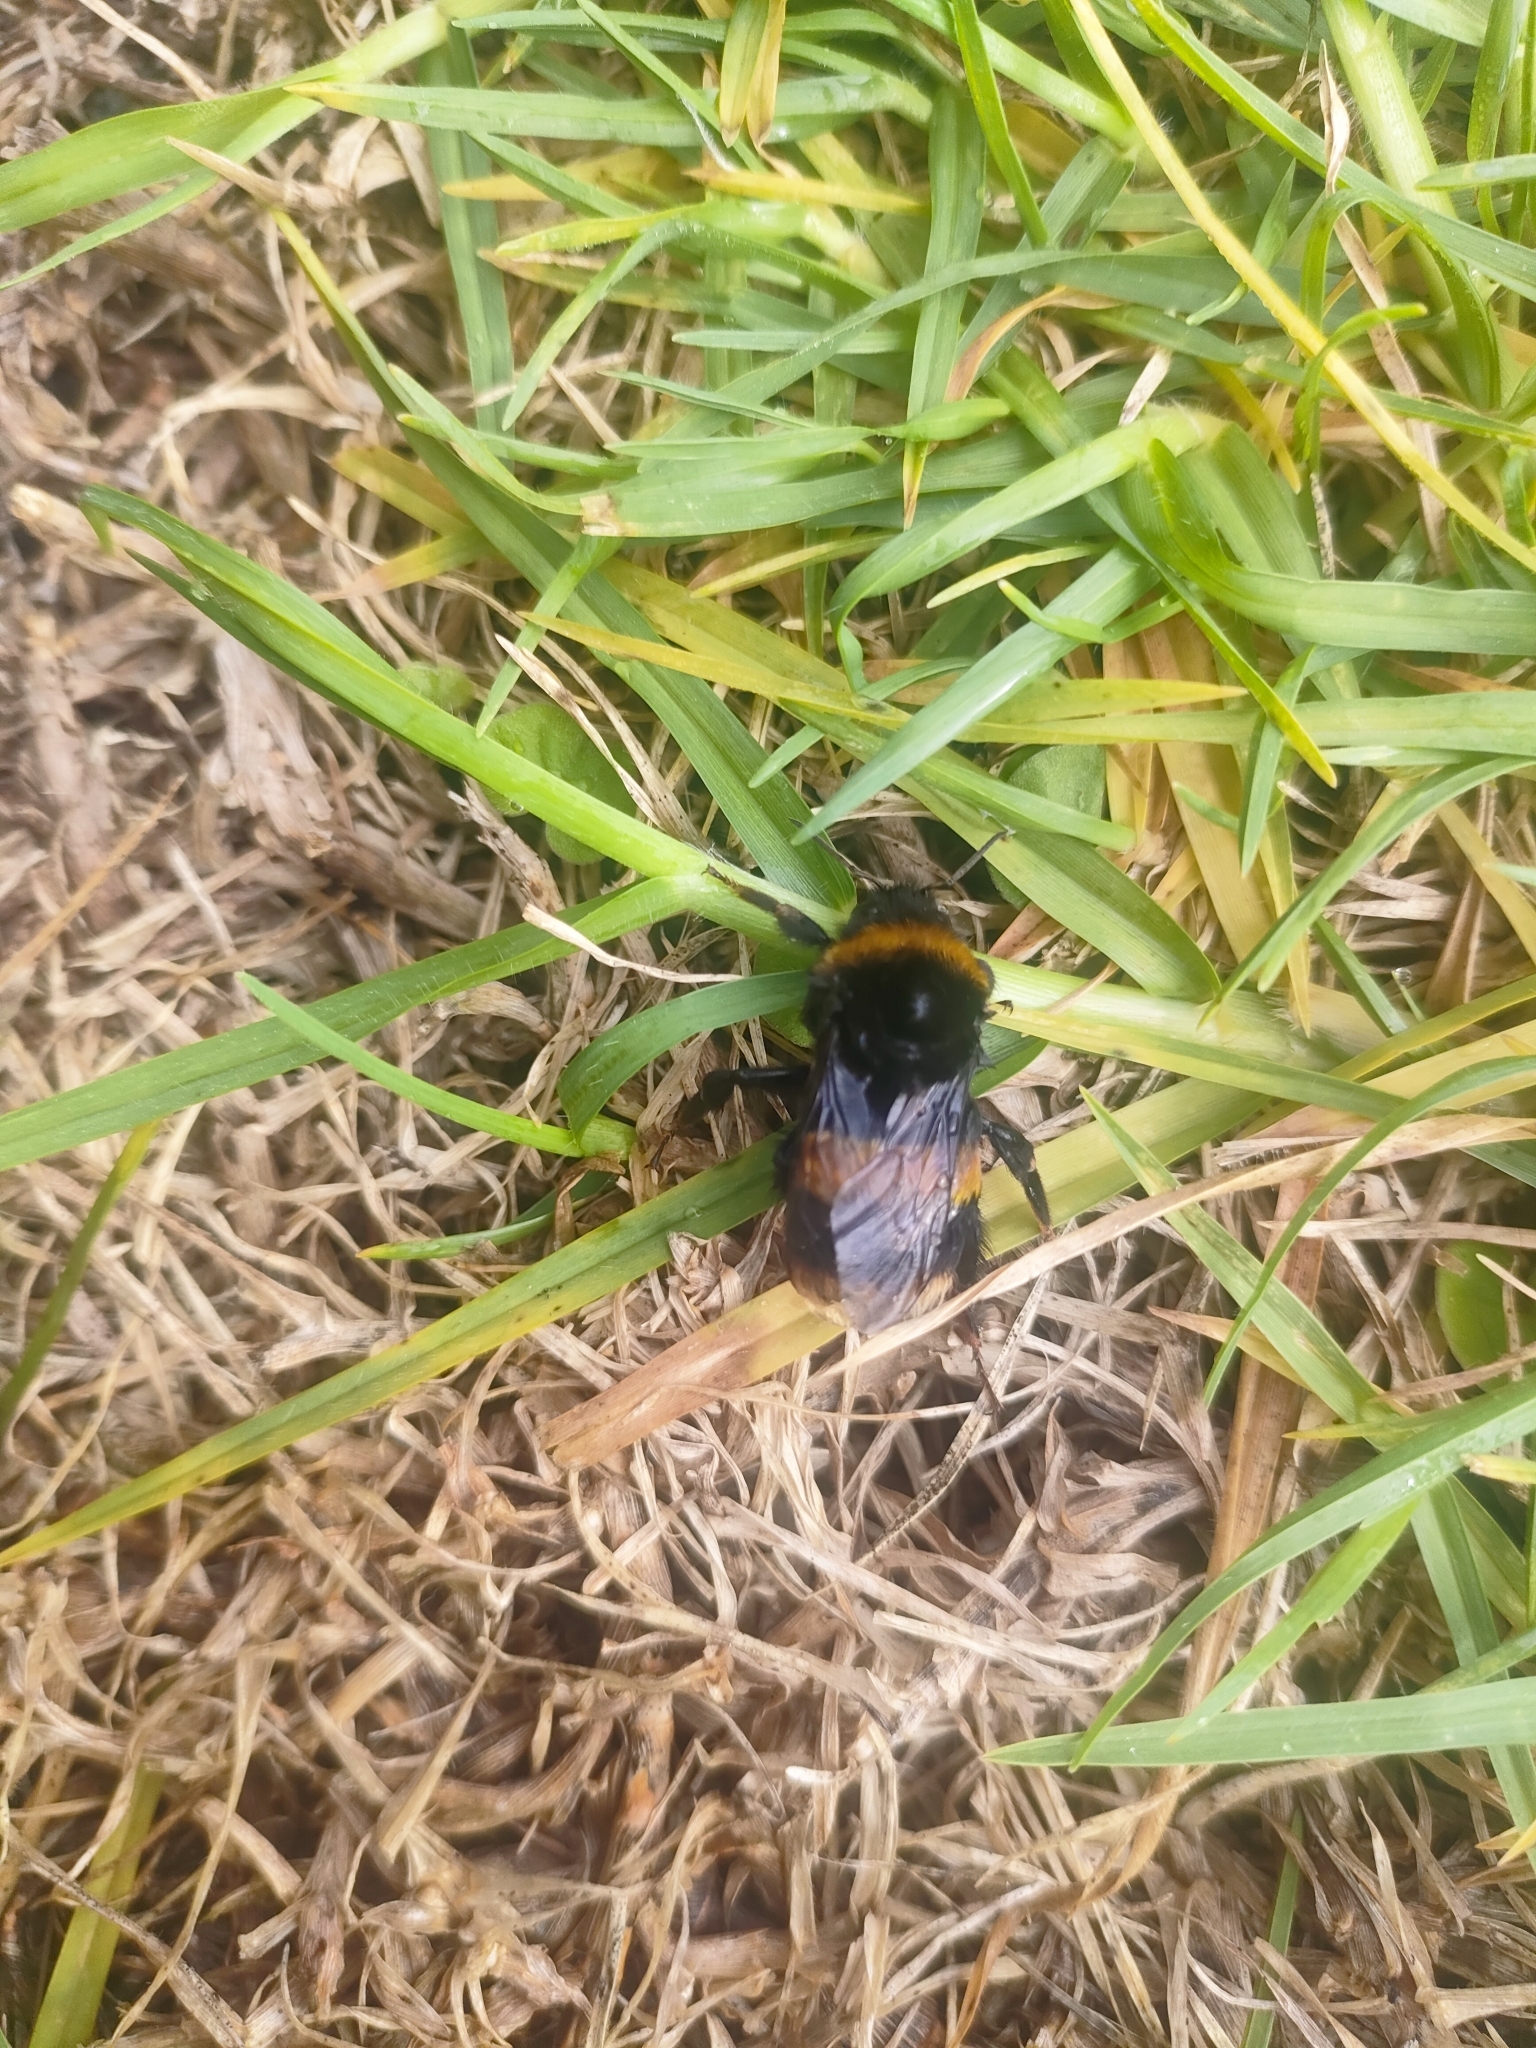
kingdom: Animalia
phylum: Arthropoda
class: Insecta
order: Hymenoptera
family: Apidae
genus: Bombus
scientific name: Bombus terrestris
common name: Buff-tailed bumblebee
